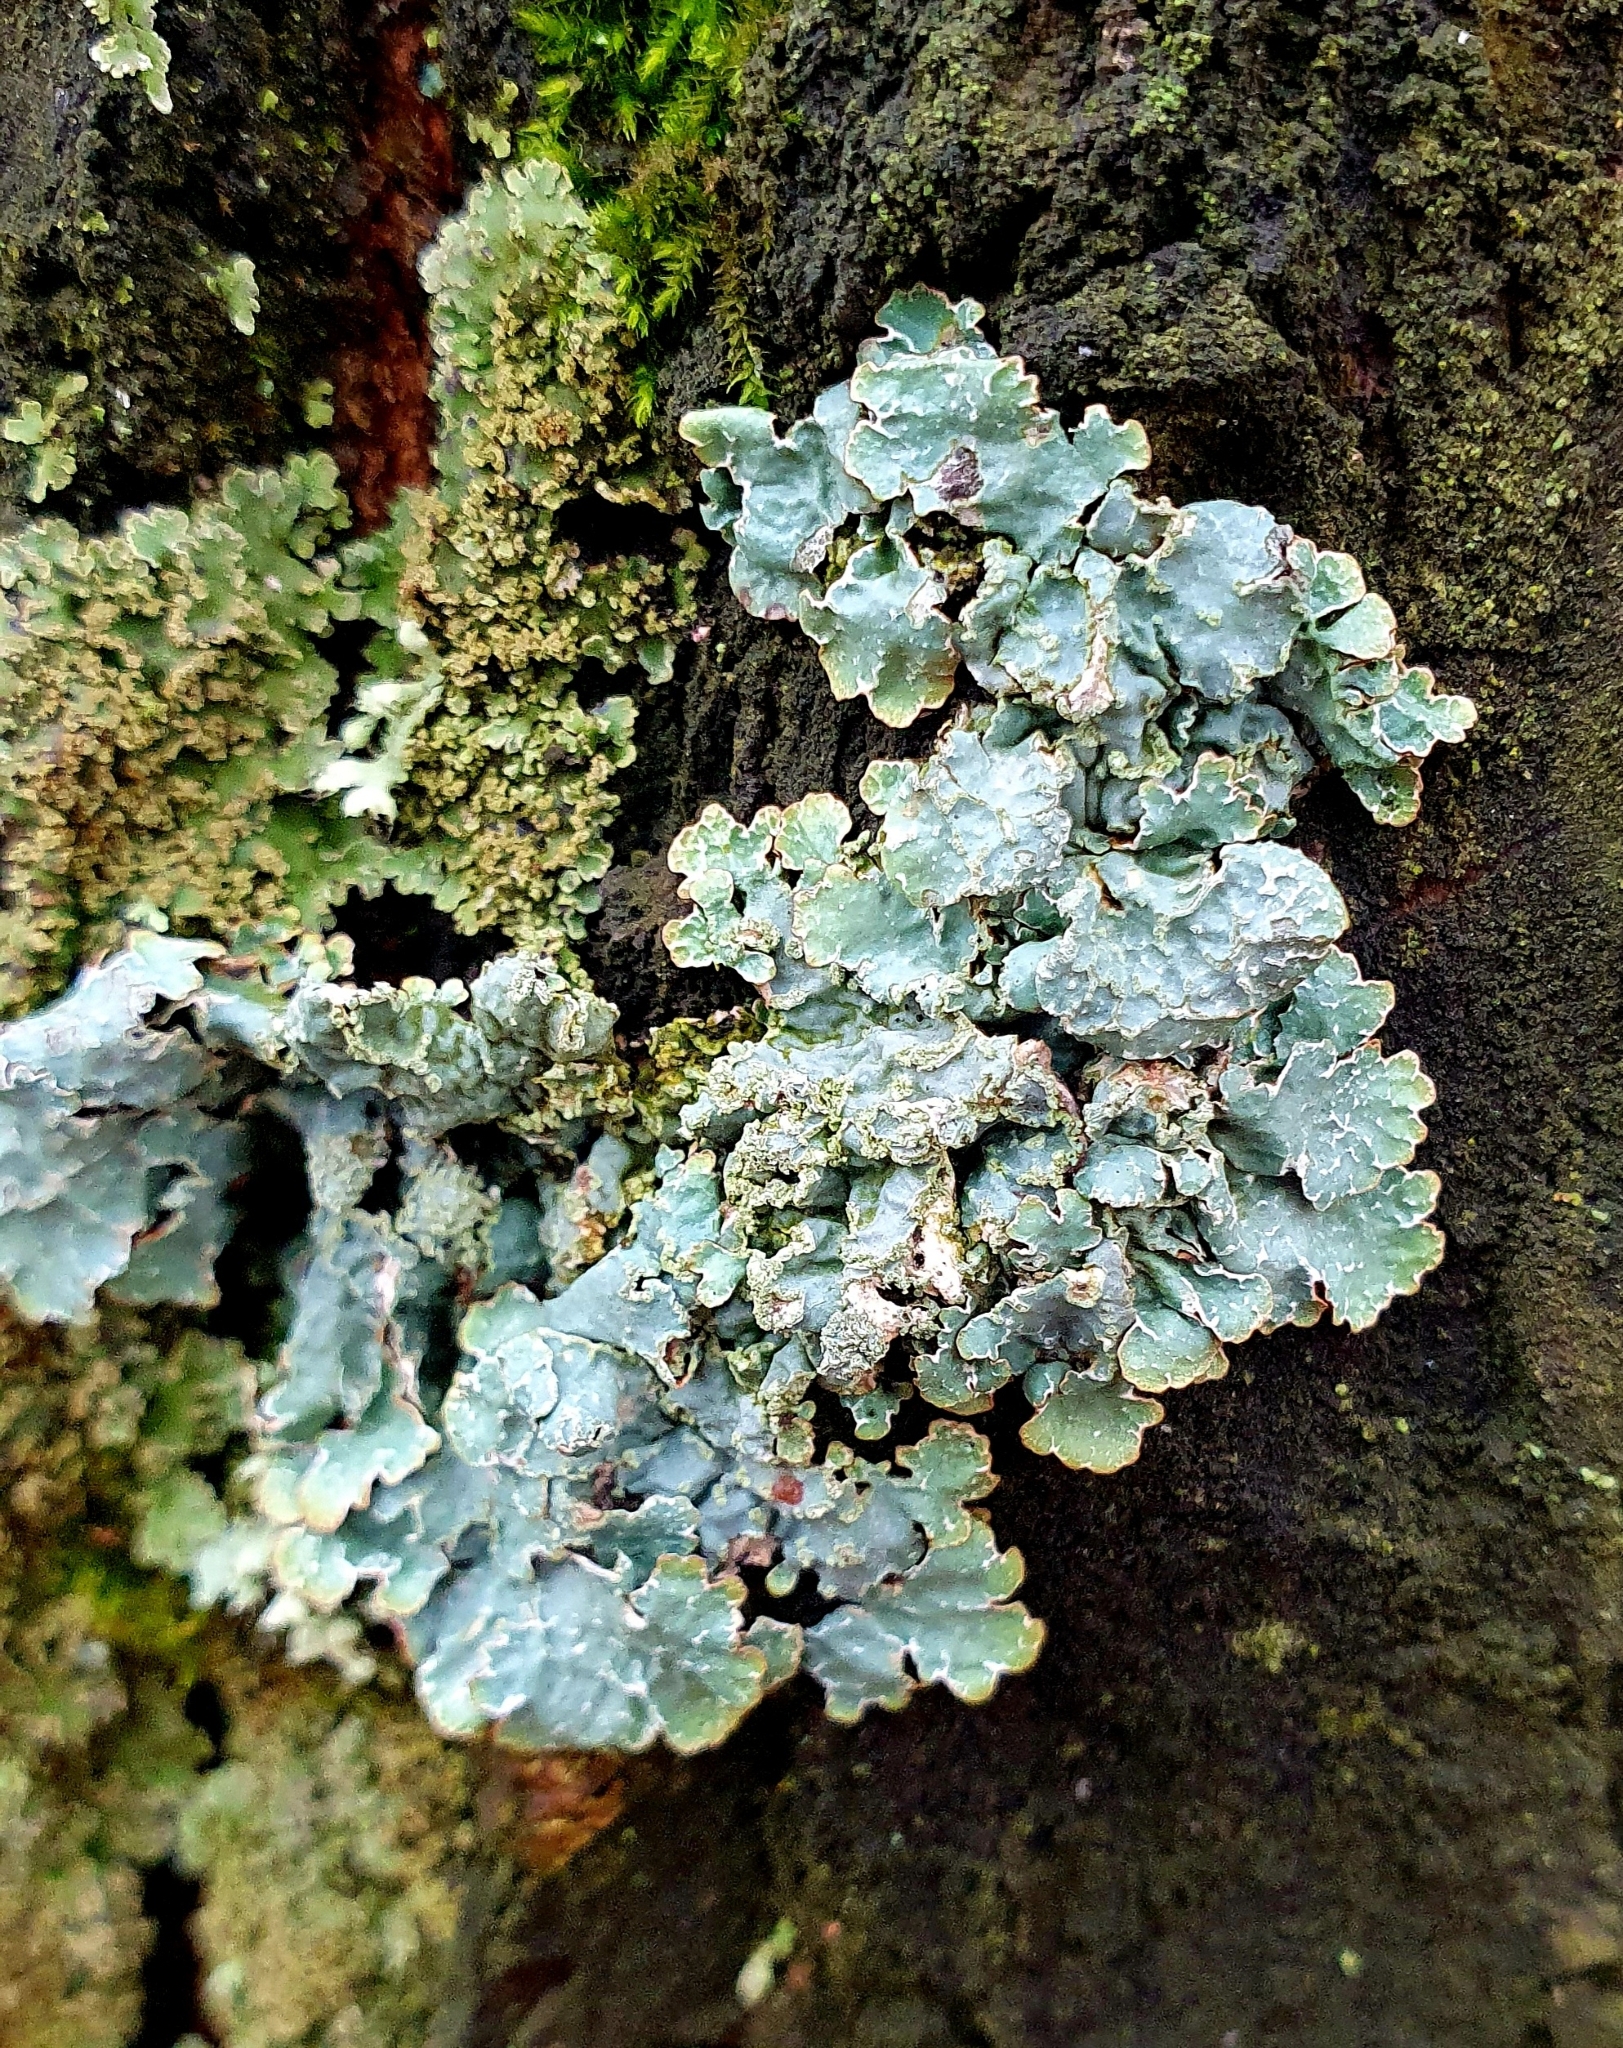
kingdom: Fungi
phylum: Ascomycota
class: Lecanoromycetes
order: Lecanorales
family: Parmeliaceae
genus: Parmelia
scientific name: Parmelia sulcata
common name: Netted shield lichen
